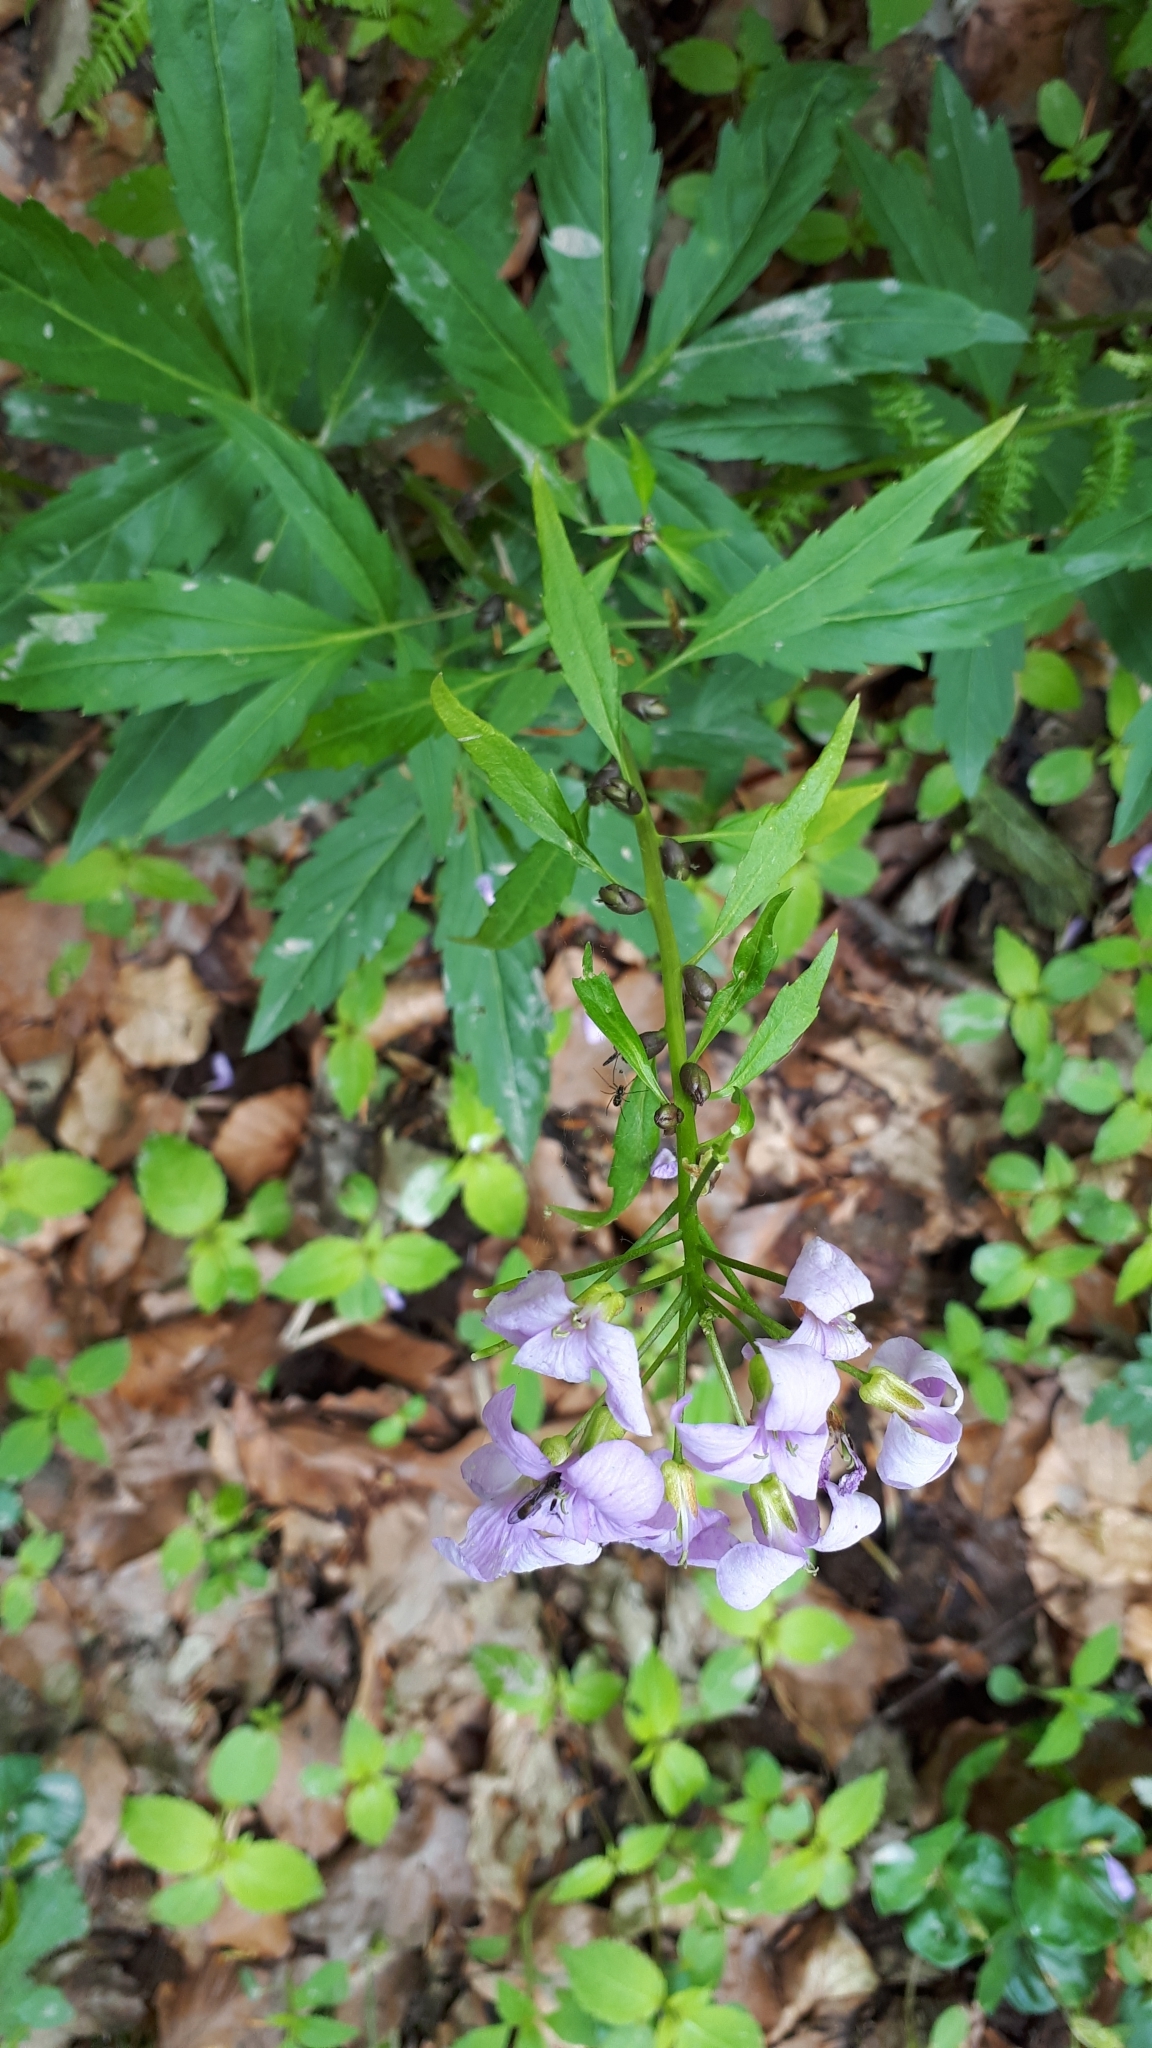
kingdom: Plantae
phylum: Tracheophyta
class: Magnoliopsida
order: Brassicales
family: Brassicaceae
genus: Cardamine
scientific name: Cardamine bulbifera
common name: Coralroot bittercress
